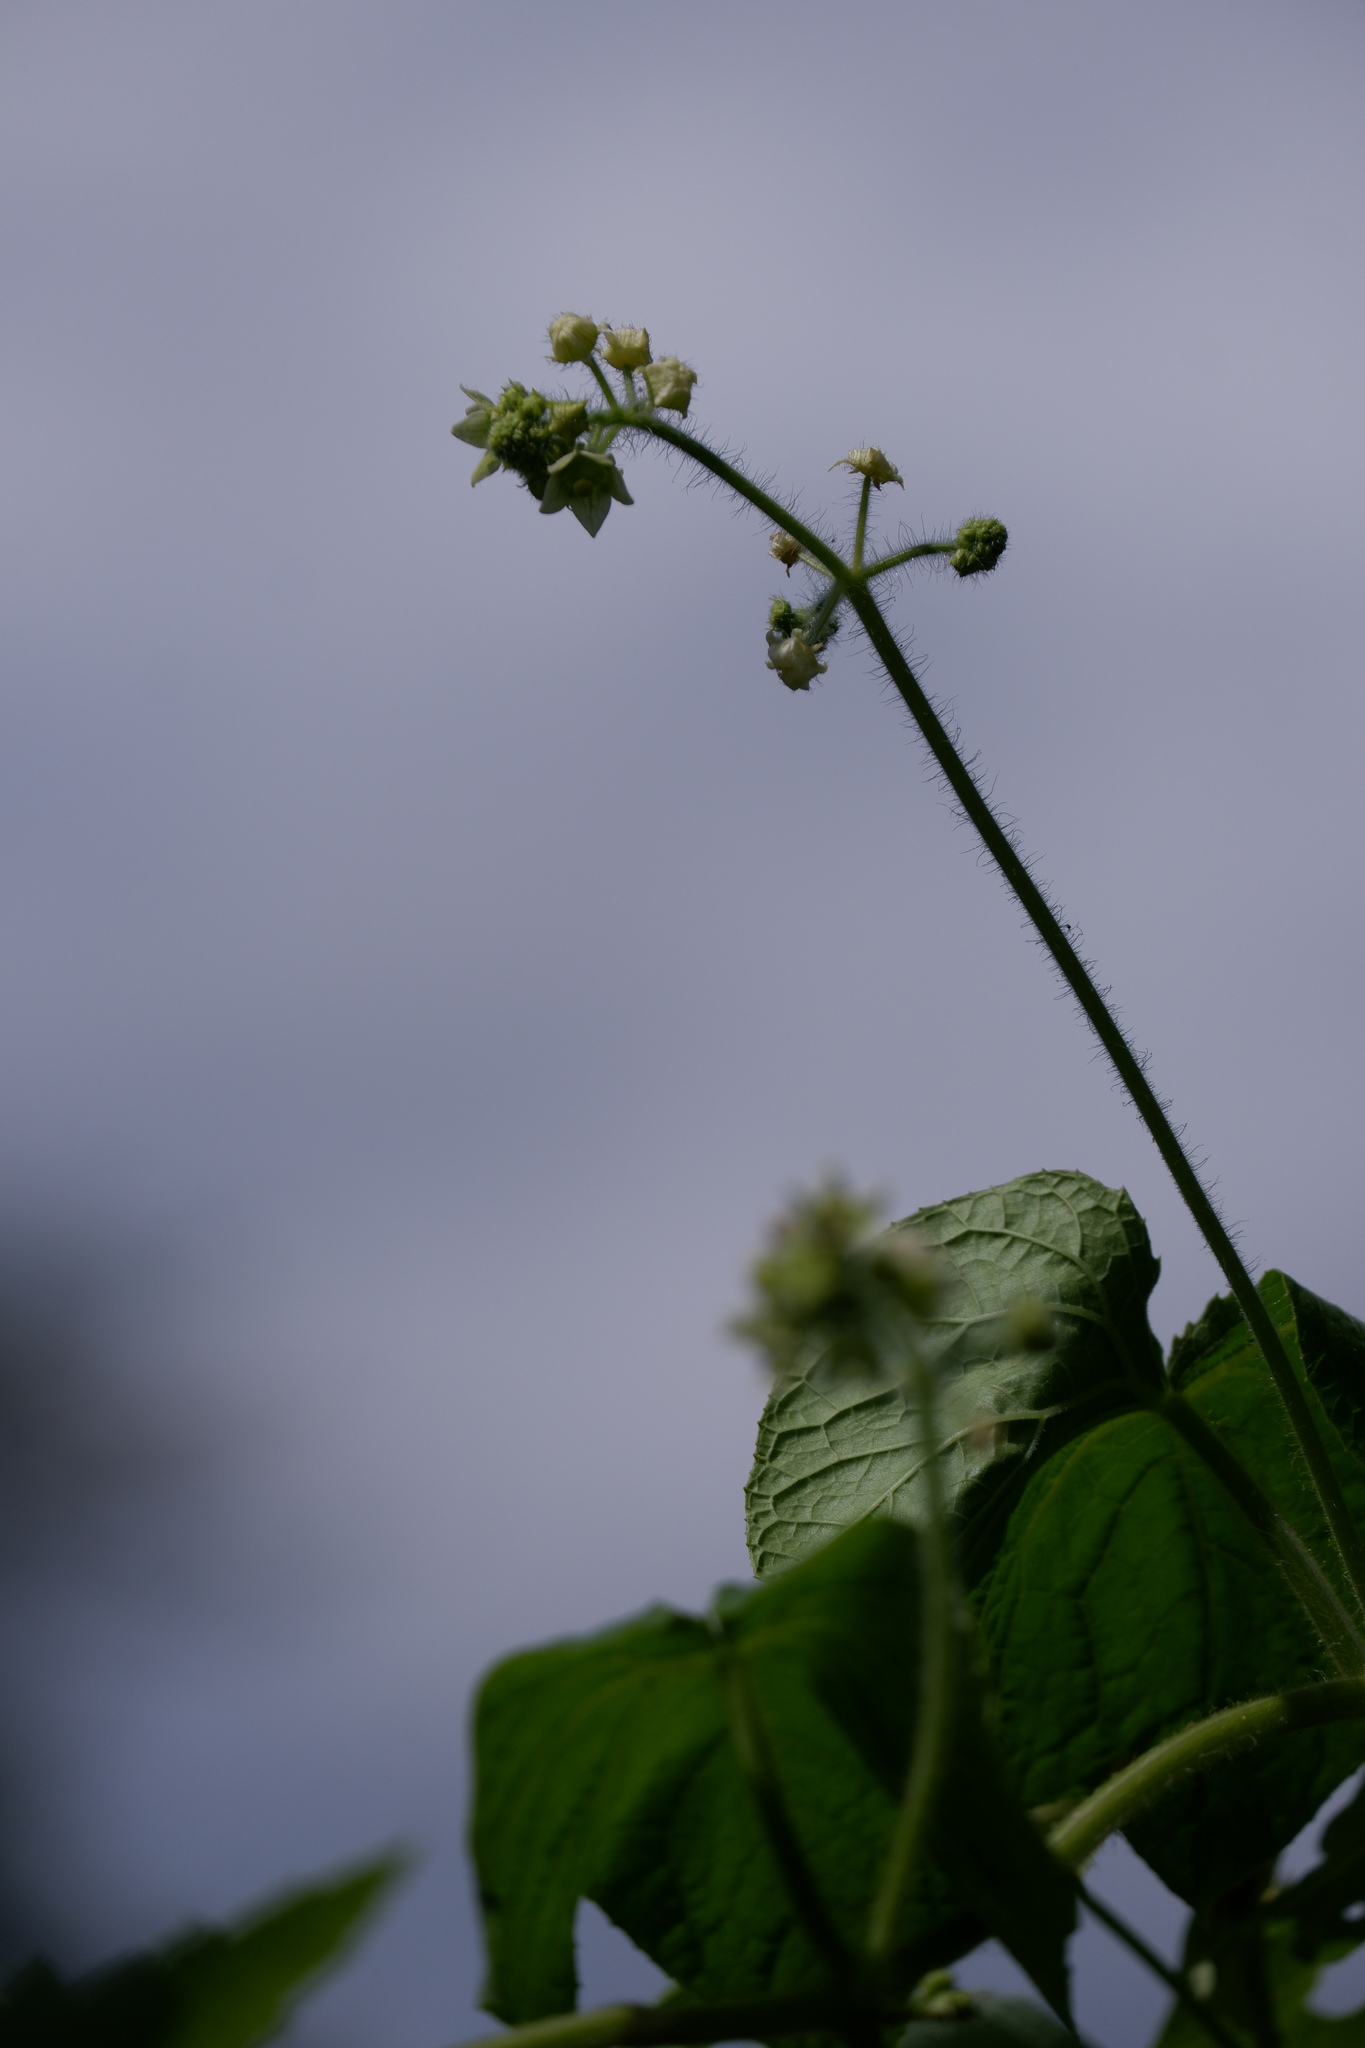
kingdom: Plantae
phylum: Tracheophyta
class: Magnoliopsida
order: Cucurbitales
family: Cucurbitaceae
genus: Sicyos
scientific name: Sicyos angulatus
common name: Angled burr cucumber
